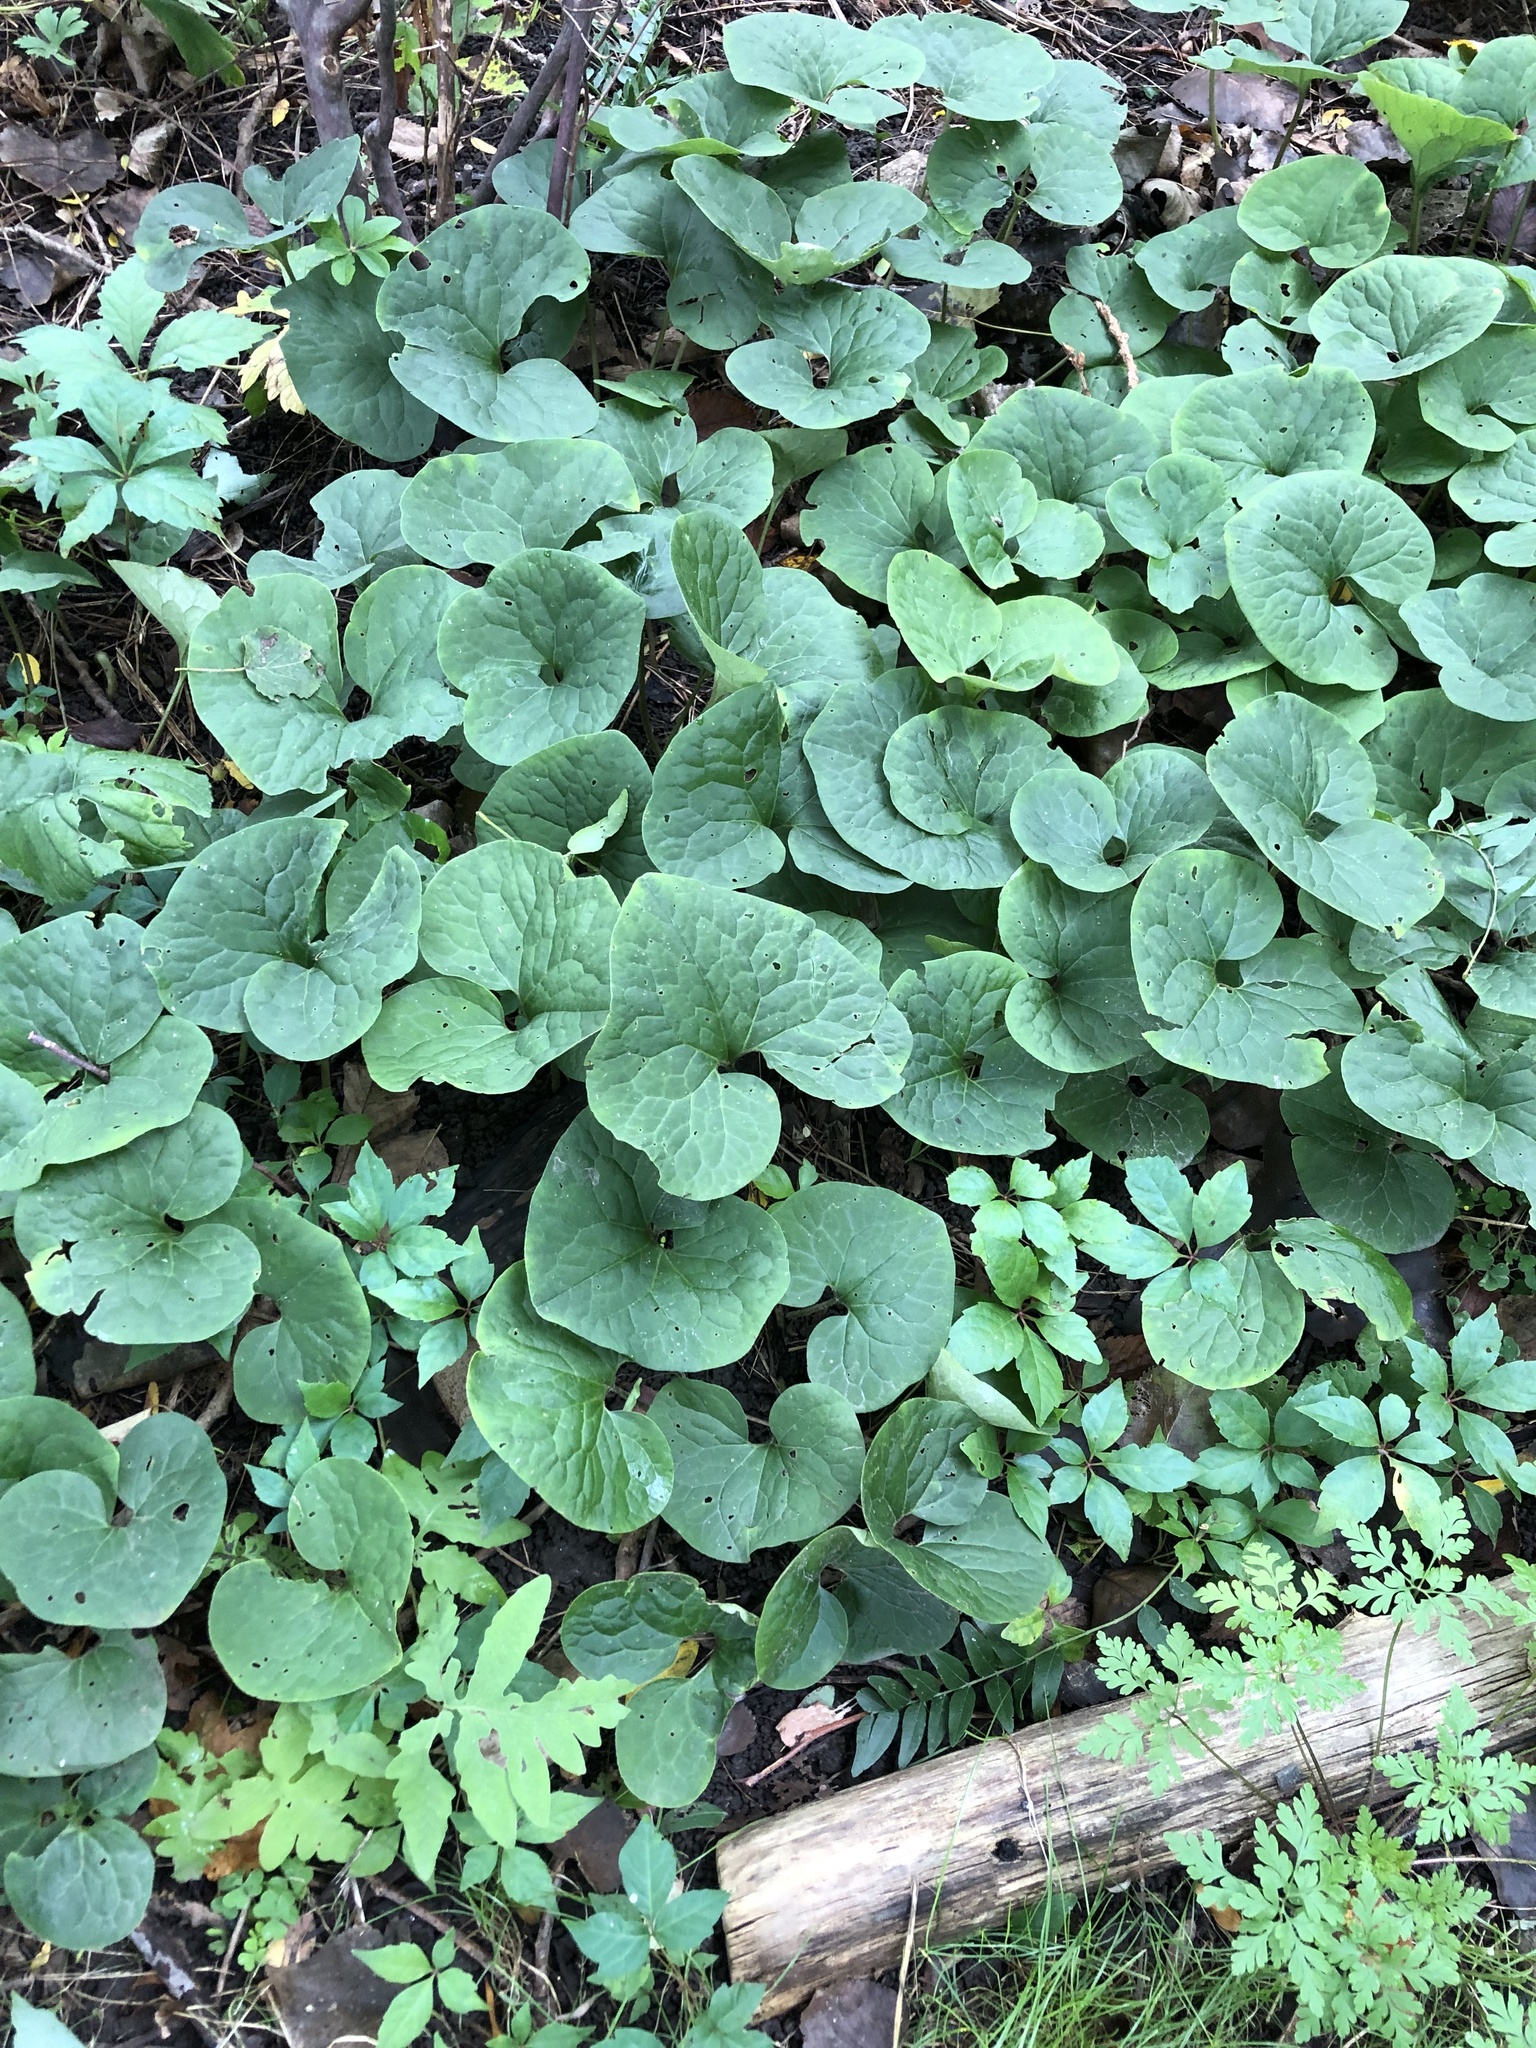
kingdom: Plantae
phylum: Tracheophyta
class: Magnoliopsida
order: Piperales
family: Aristolochiaceae
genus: Asarum
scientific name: Asarum canadense
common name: Wild ginger
